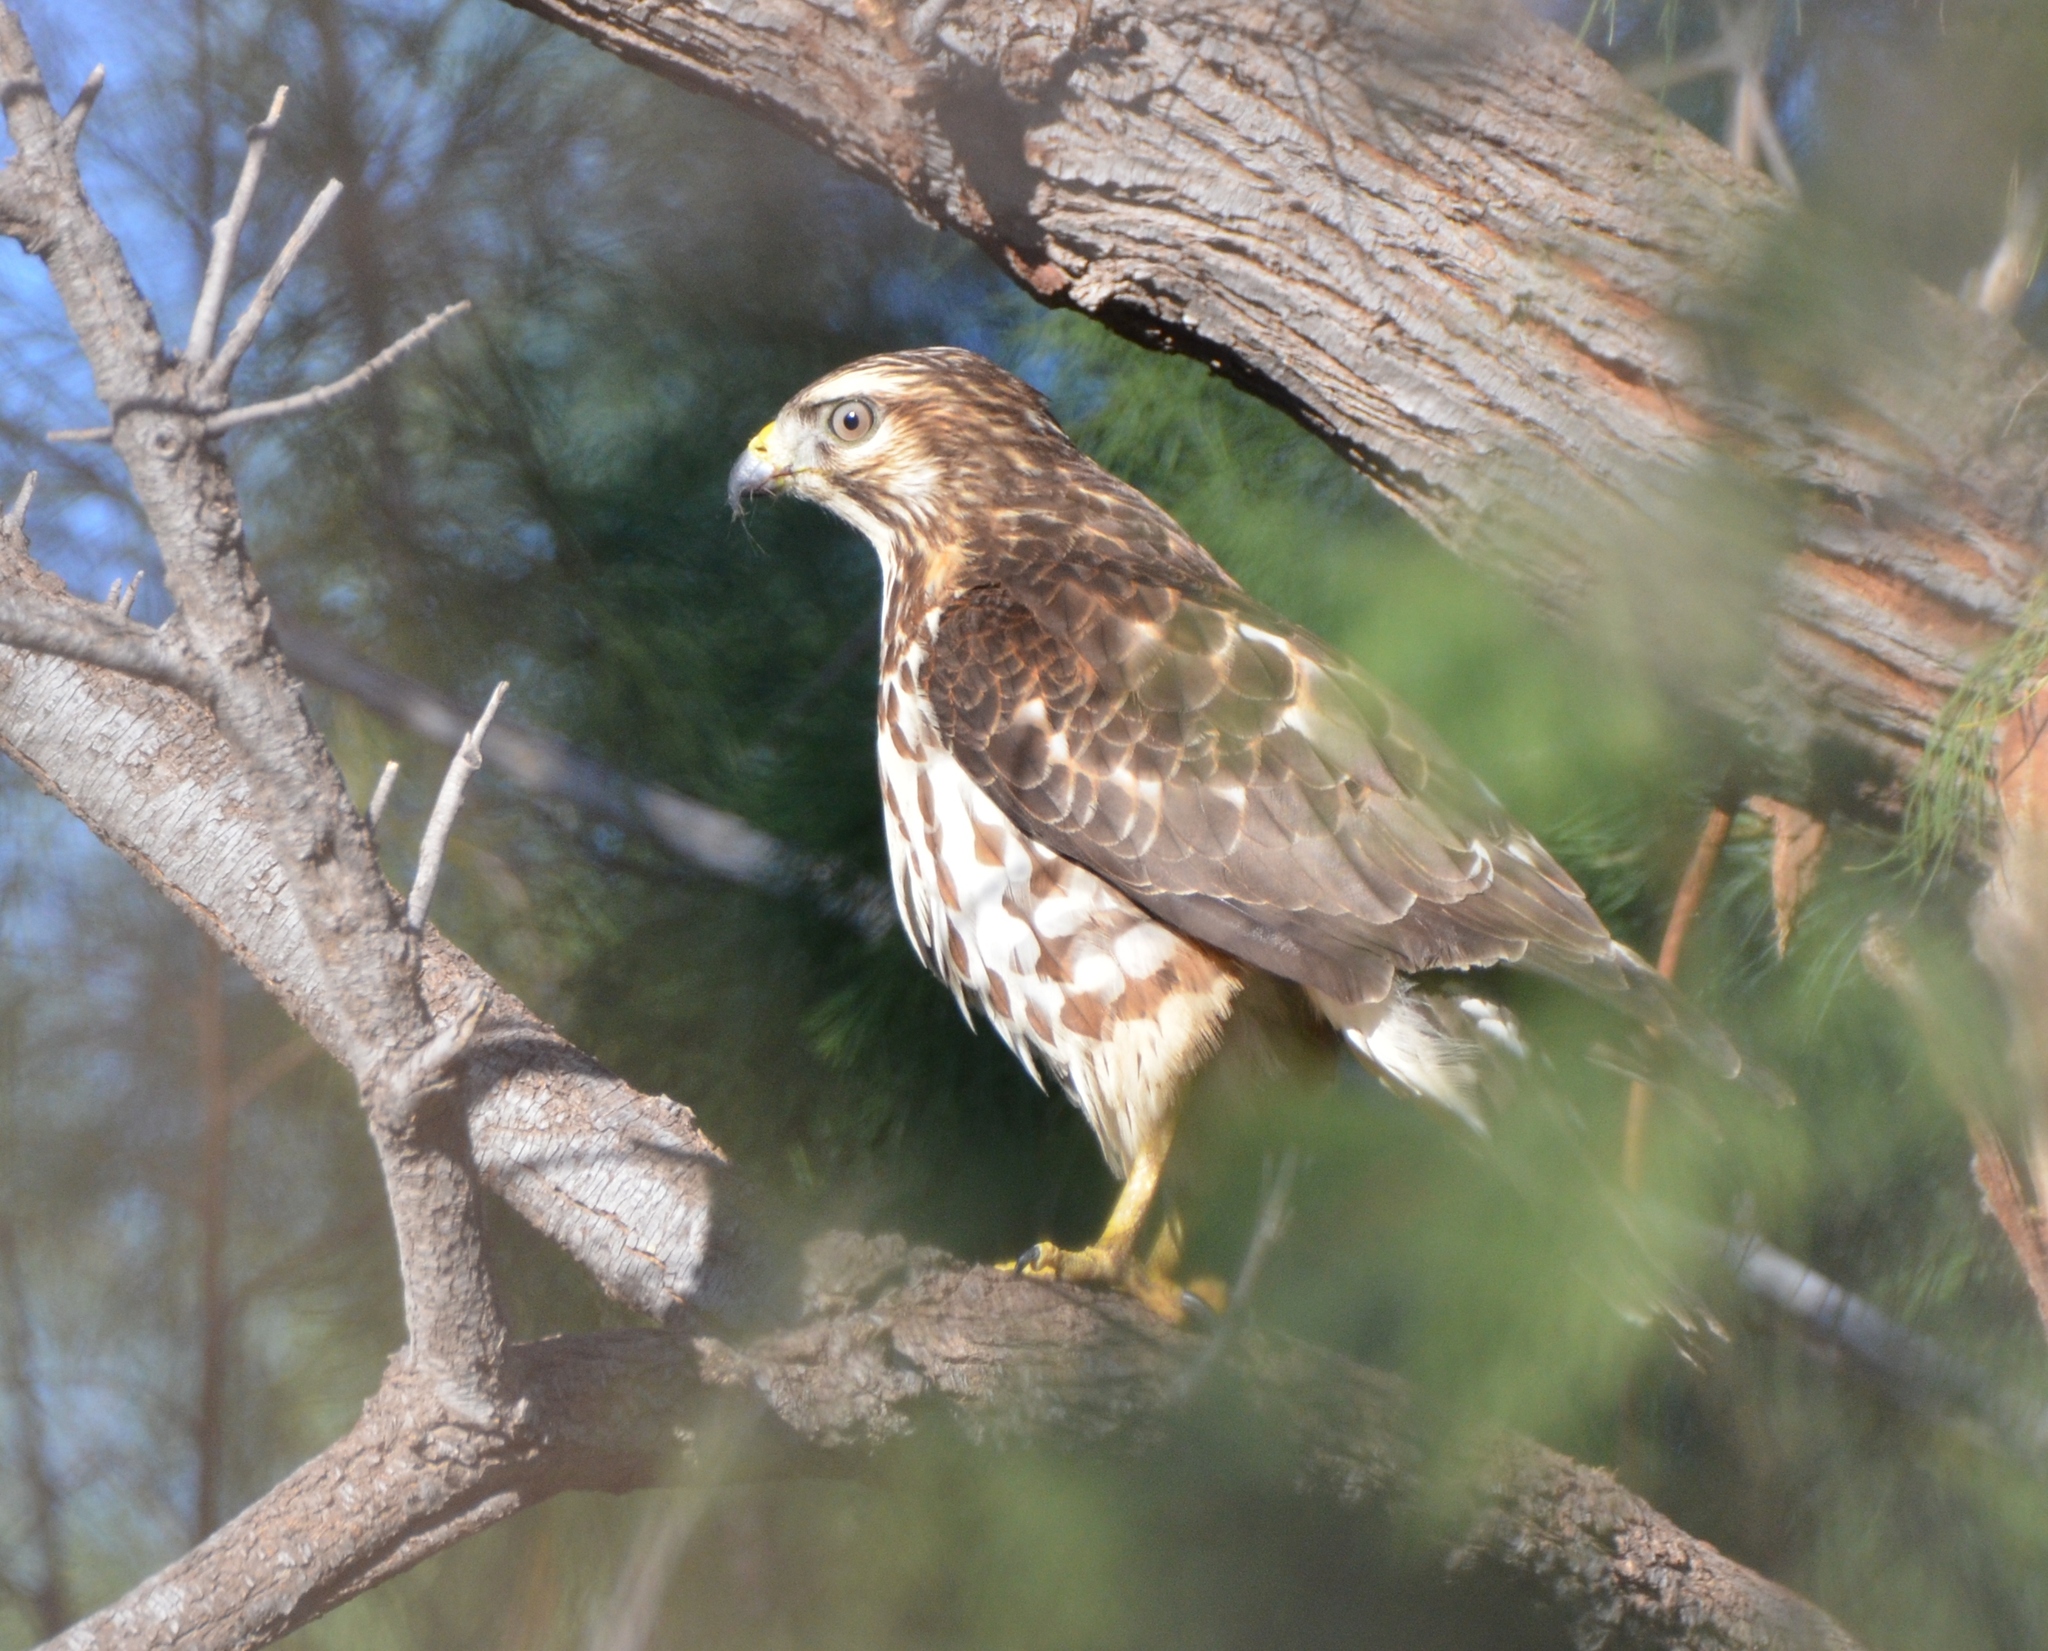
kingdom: Animalia
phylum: Chordata
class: Aves
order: Accipitriformes
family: Accipitridae
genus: Buteo
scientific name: Buteo lineatus
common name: Red-shouldered hawk
